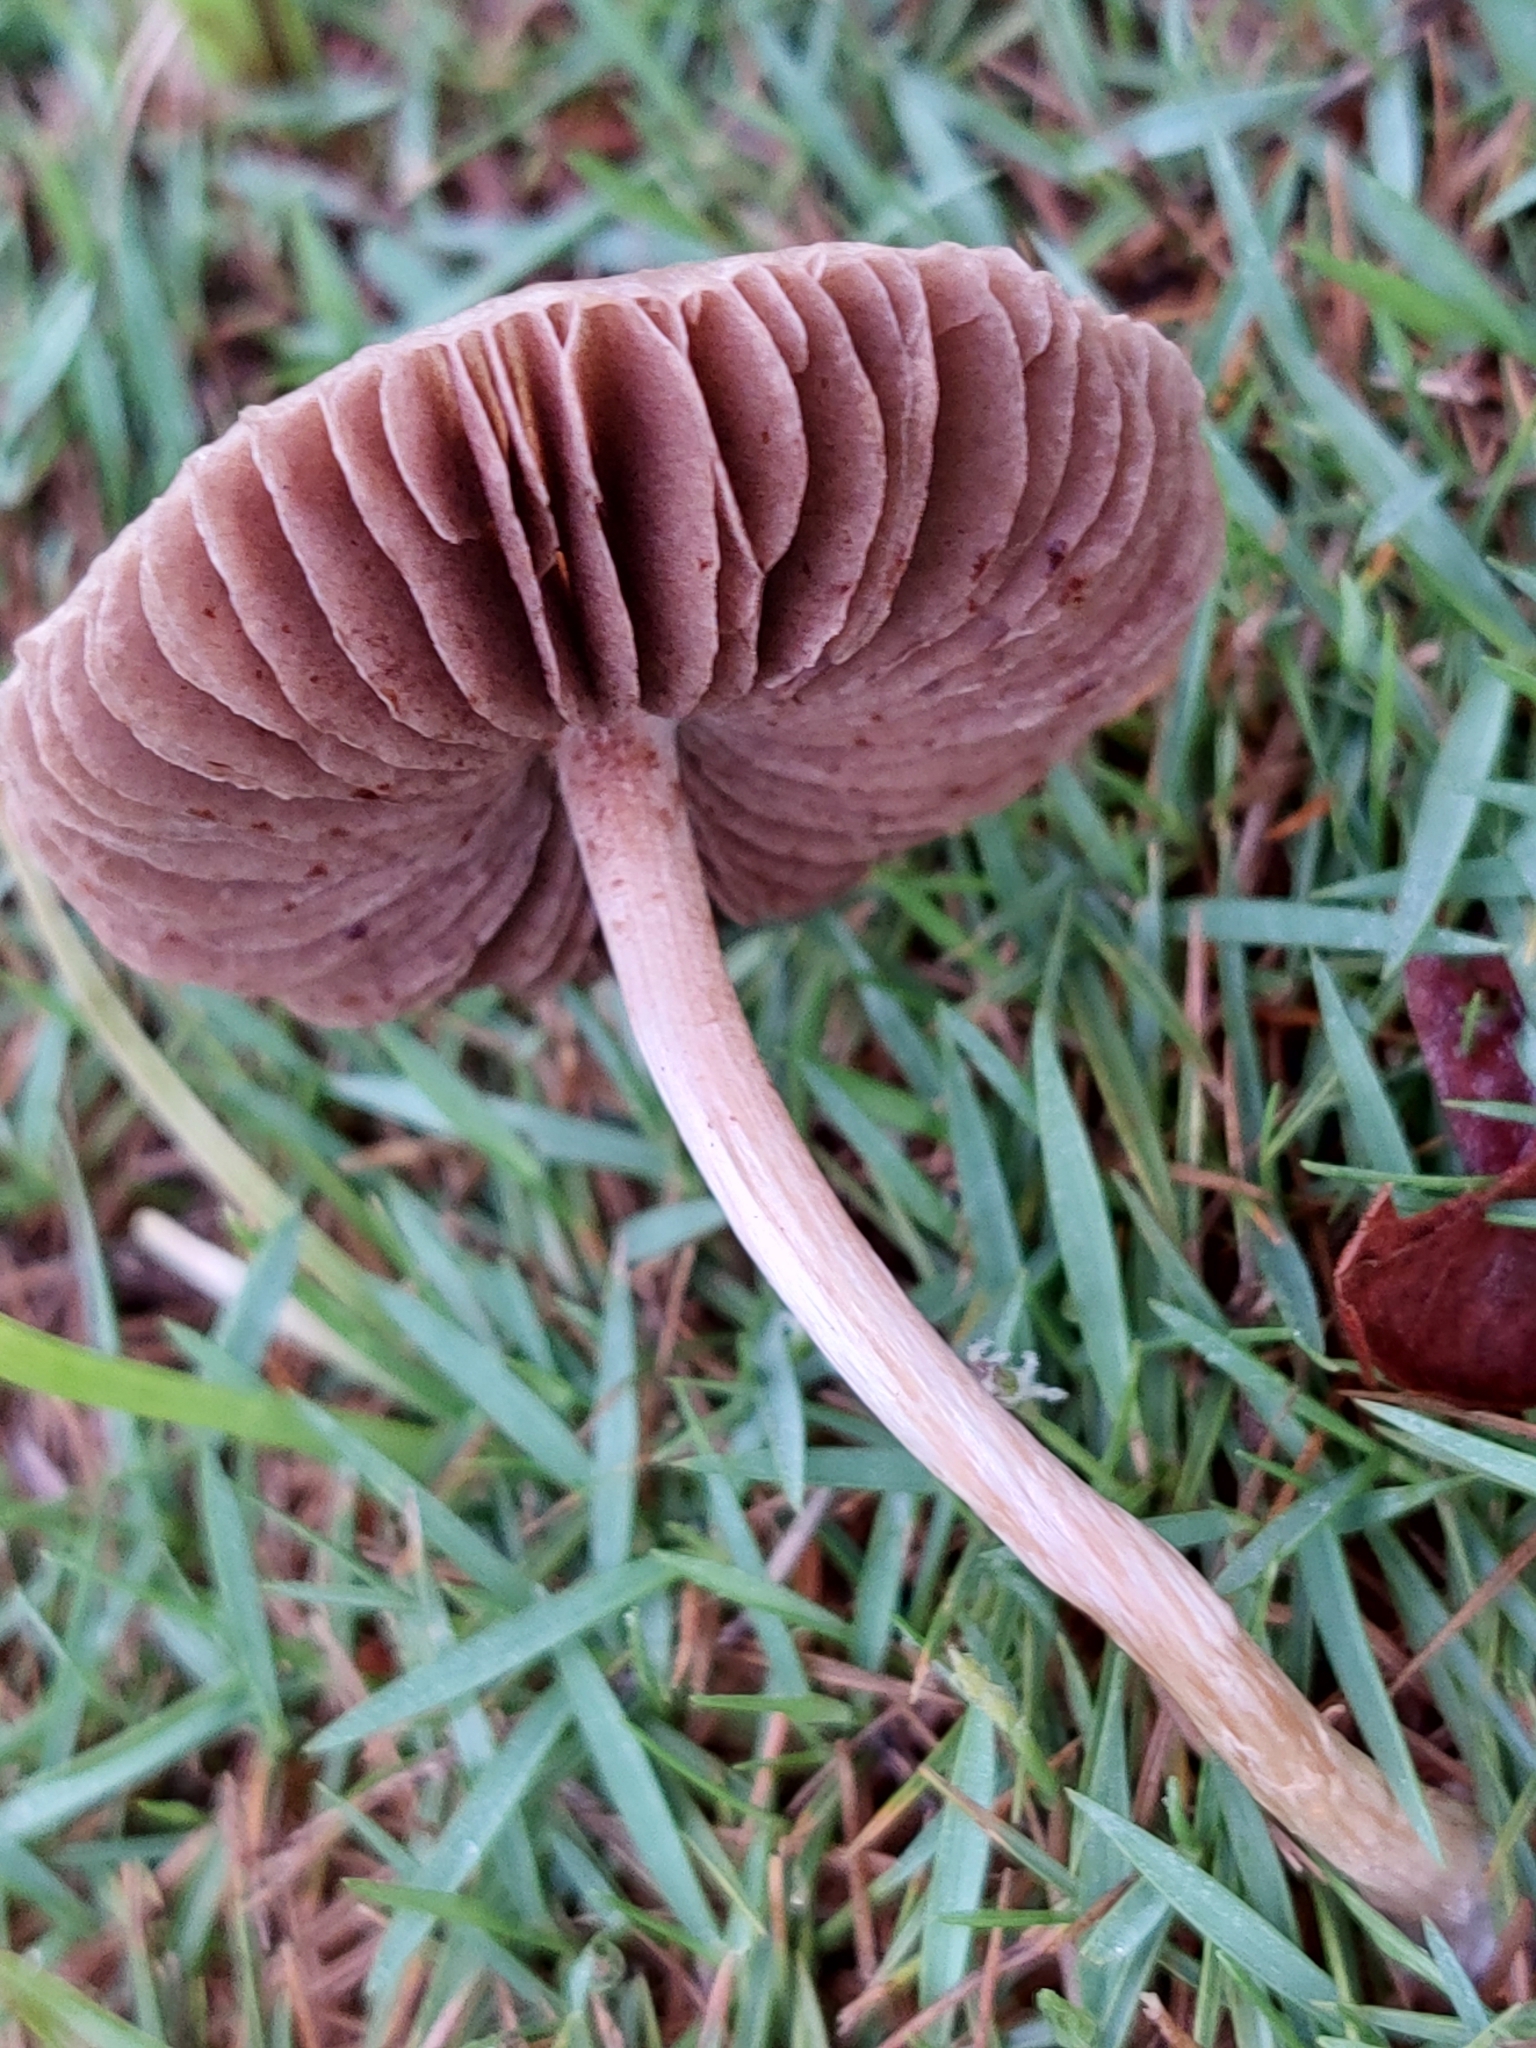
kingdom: Fungi
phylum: Basidiomycota
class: Agaricomycetes
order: Agaricales
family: Bolbitiaceae
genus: Panaeolina
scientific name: Panaeolina foenisecii
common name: Brown hay cap
